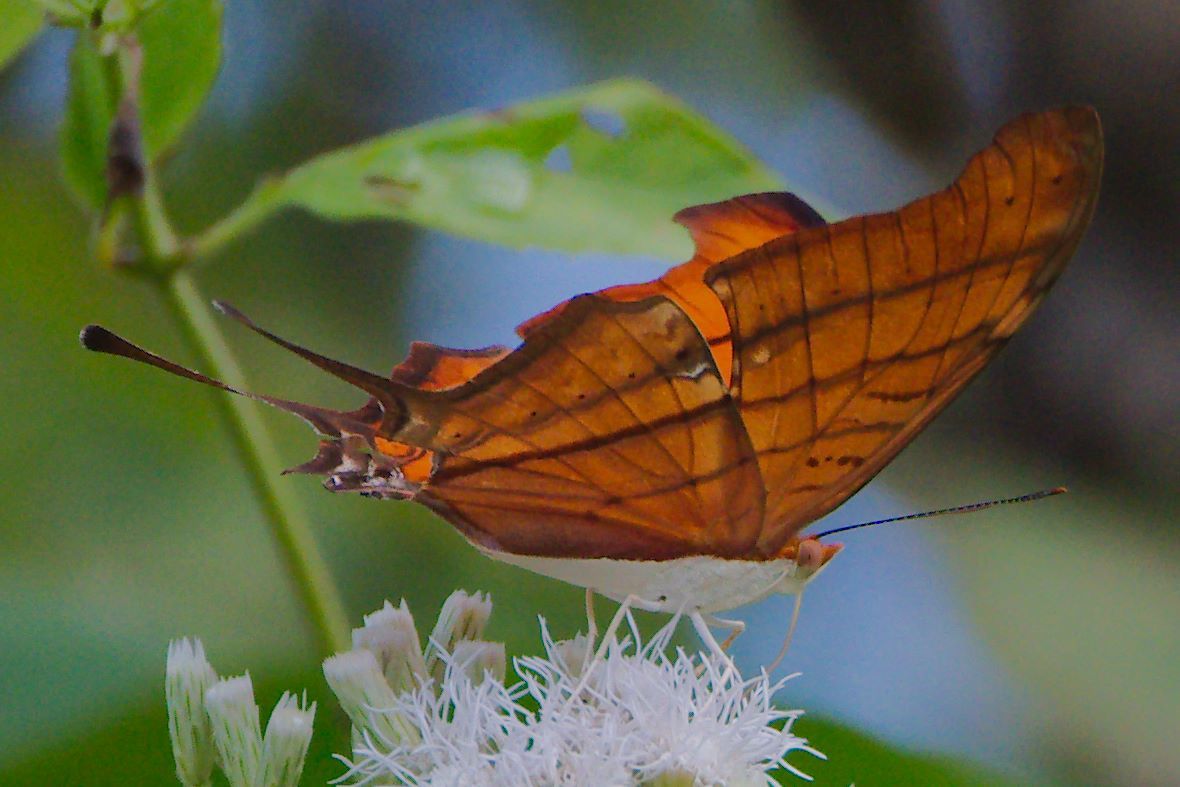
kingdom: Animalia
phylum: Arthropoda
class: Insecta
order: Lepidoptera
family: Nymphalidae
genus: Marpesia
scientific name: Marpesia petreus
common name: Red dagger wing
